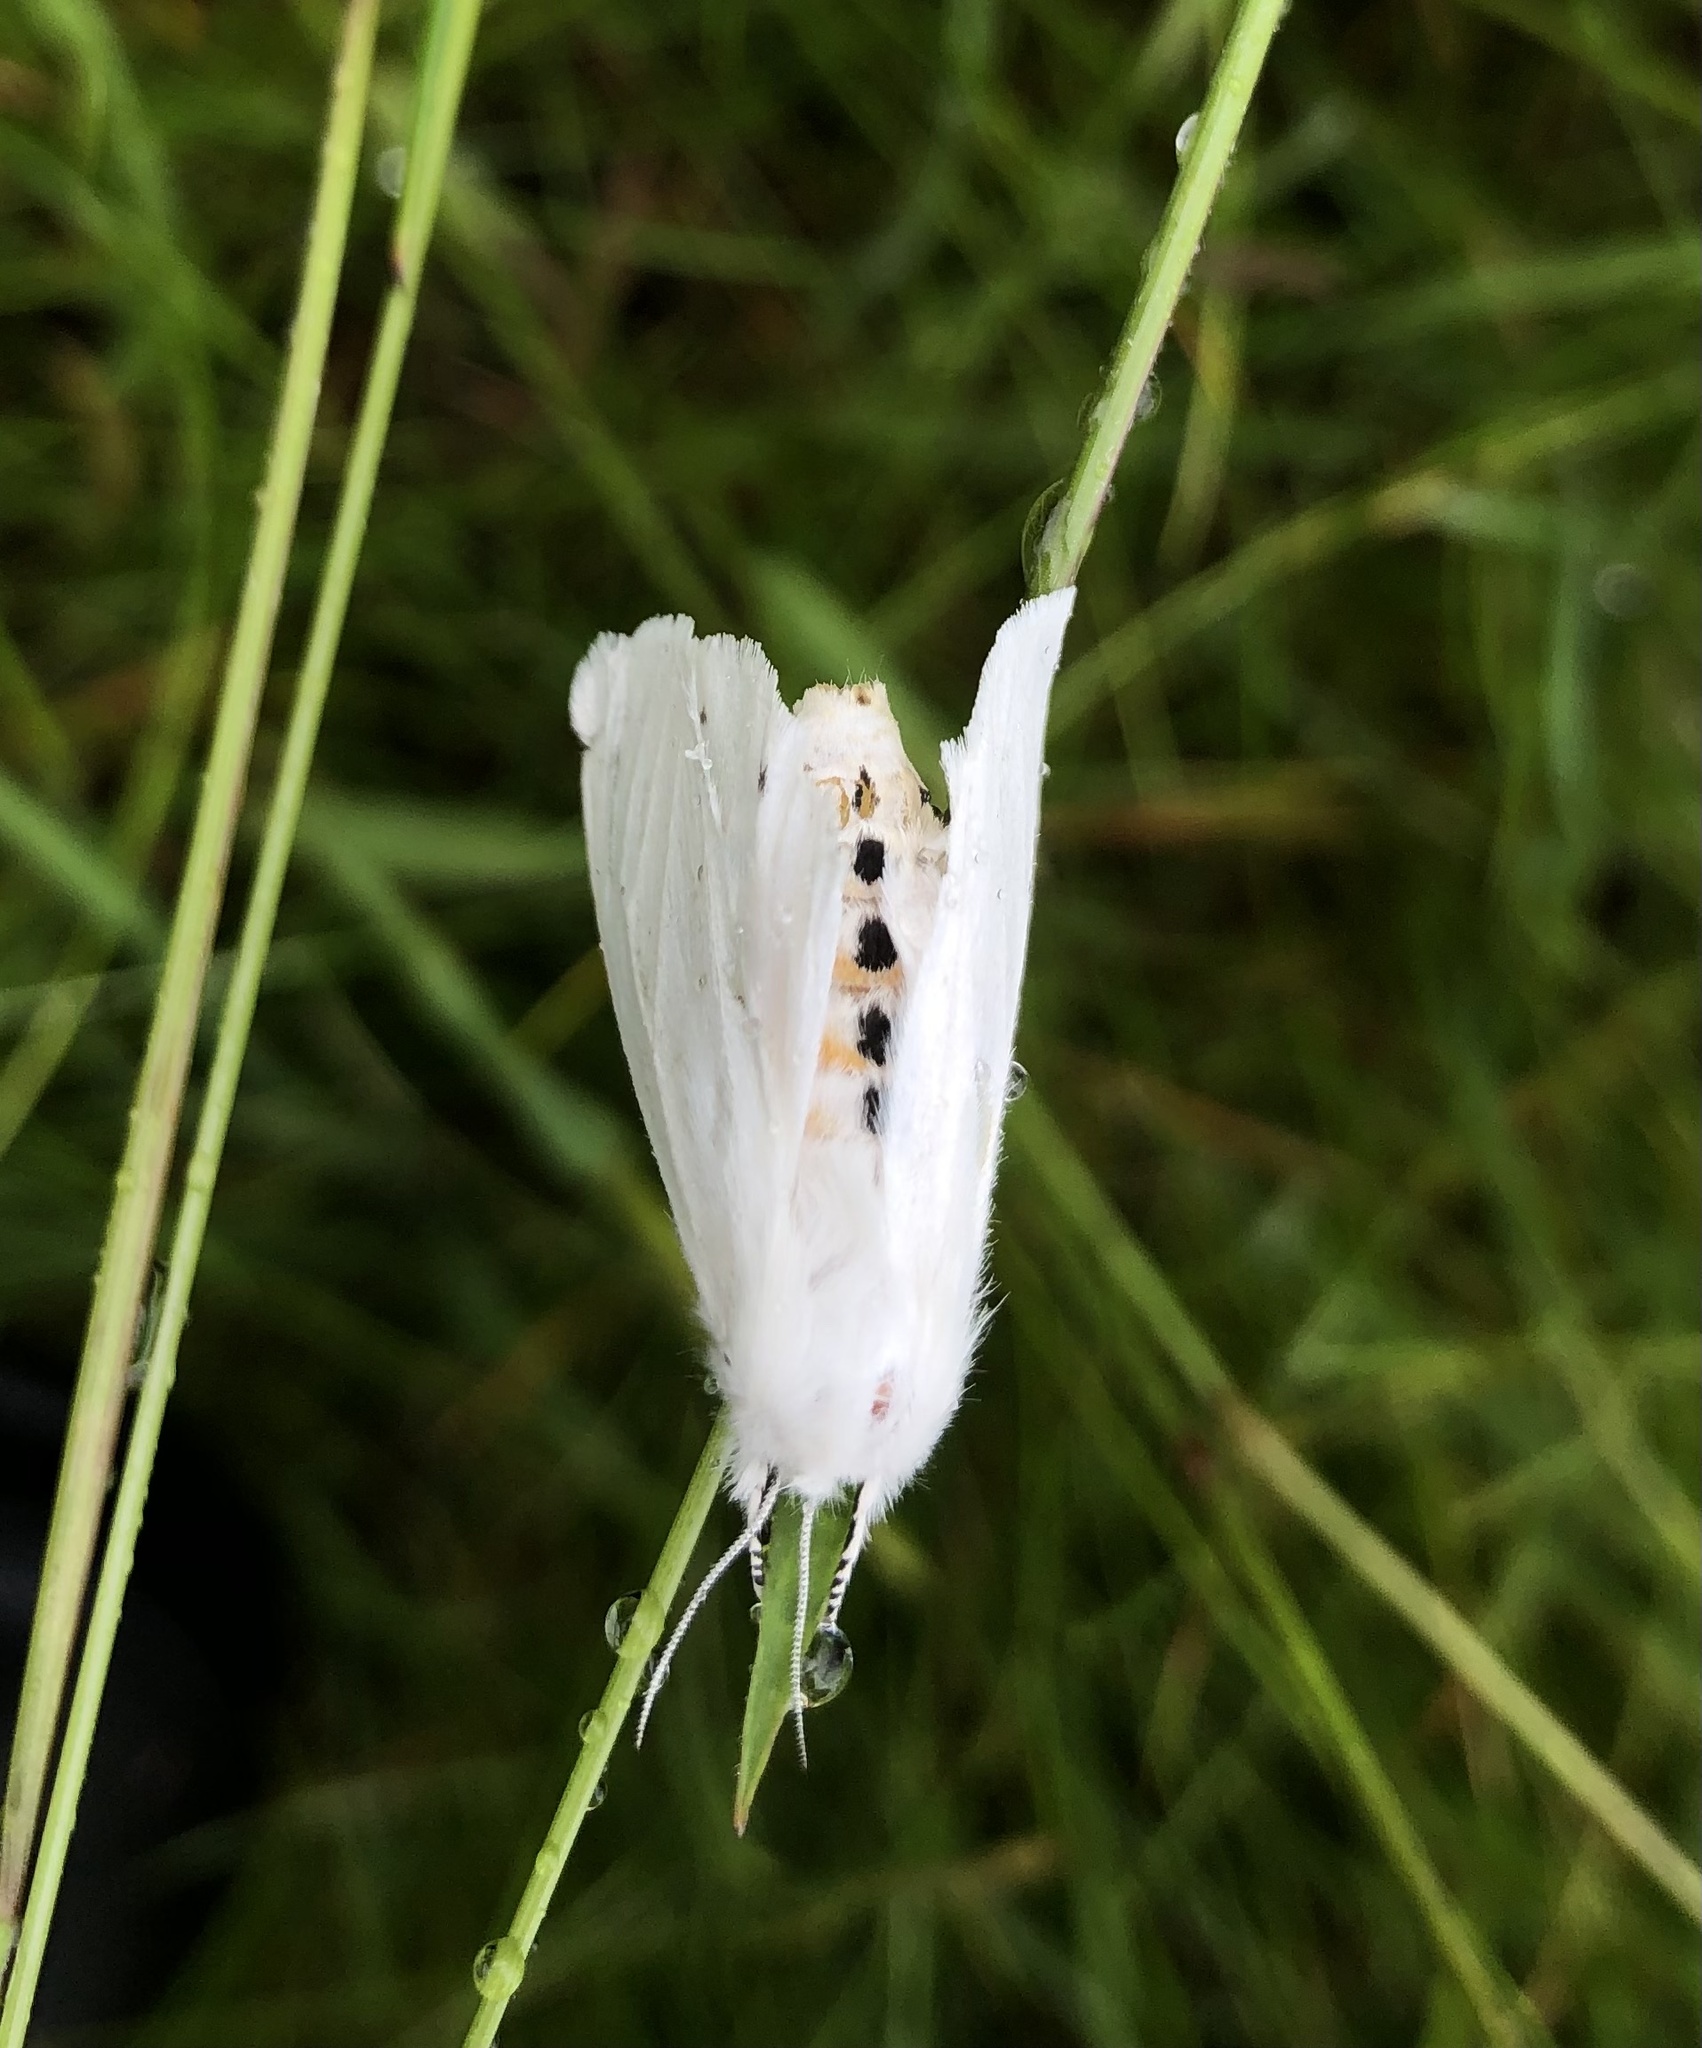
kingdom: Animalia
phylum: Arthropoda
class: Insecta
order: Lepidoptera
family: Erebidae
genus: Spilosoma
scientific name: Spilosoma virginica
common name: Virginia tiger moth
